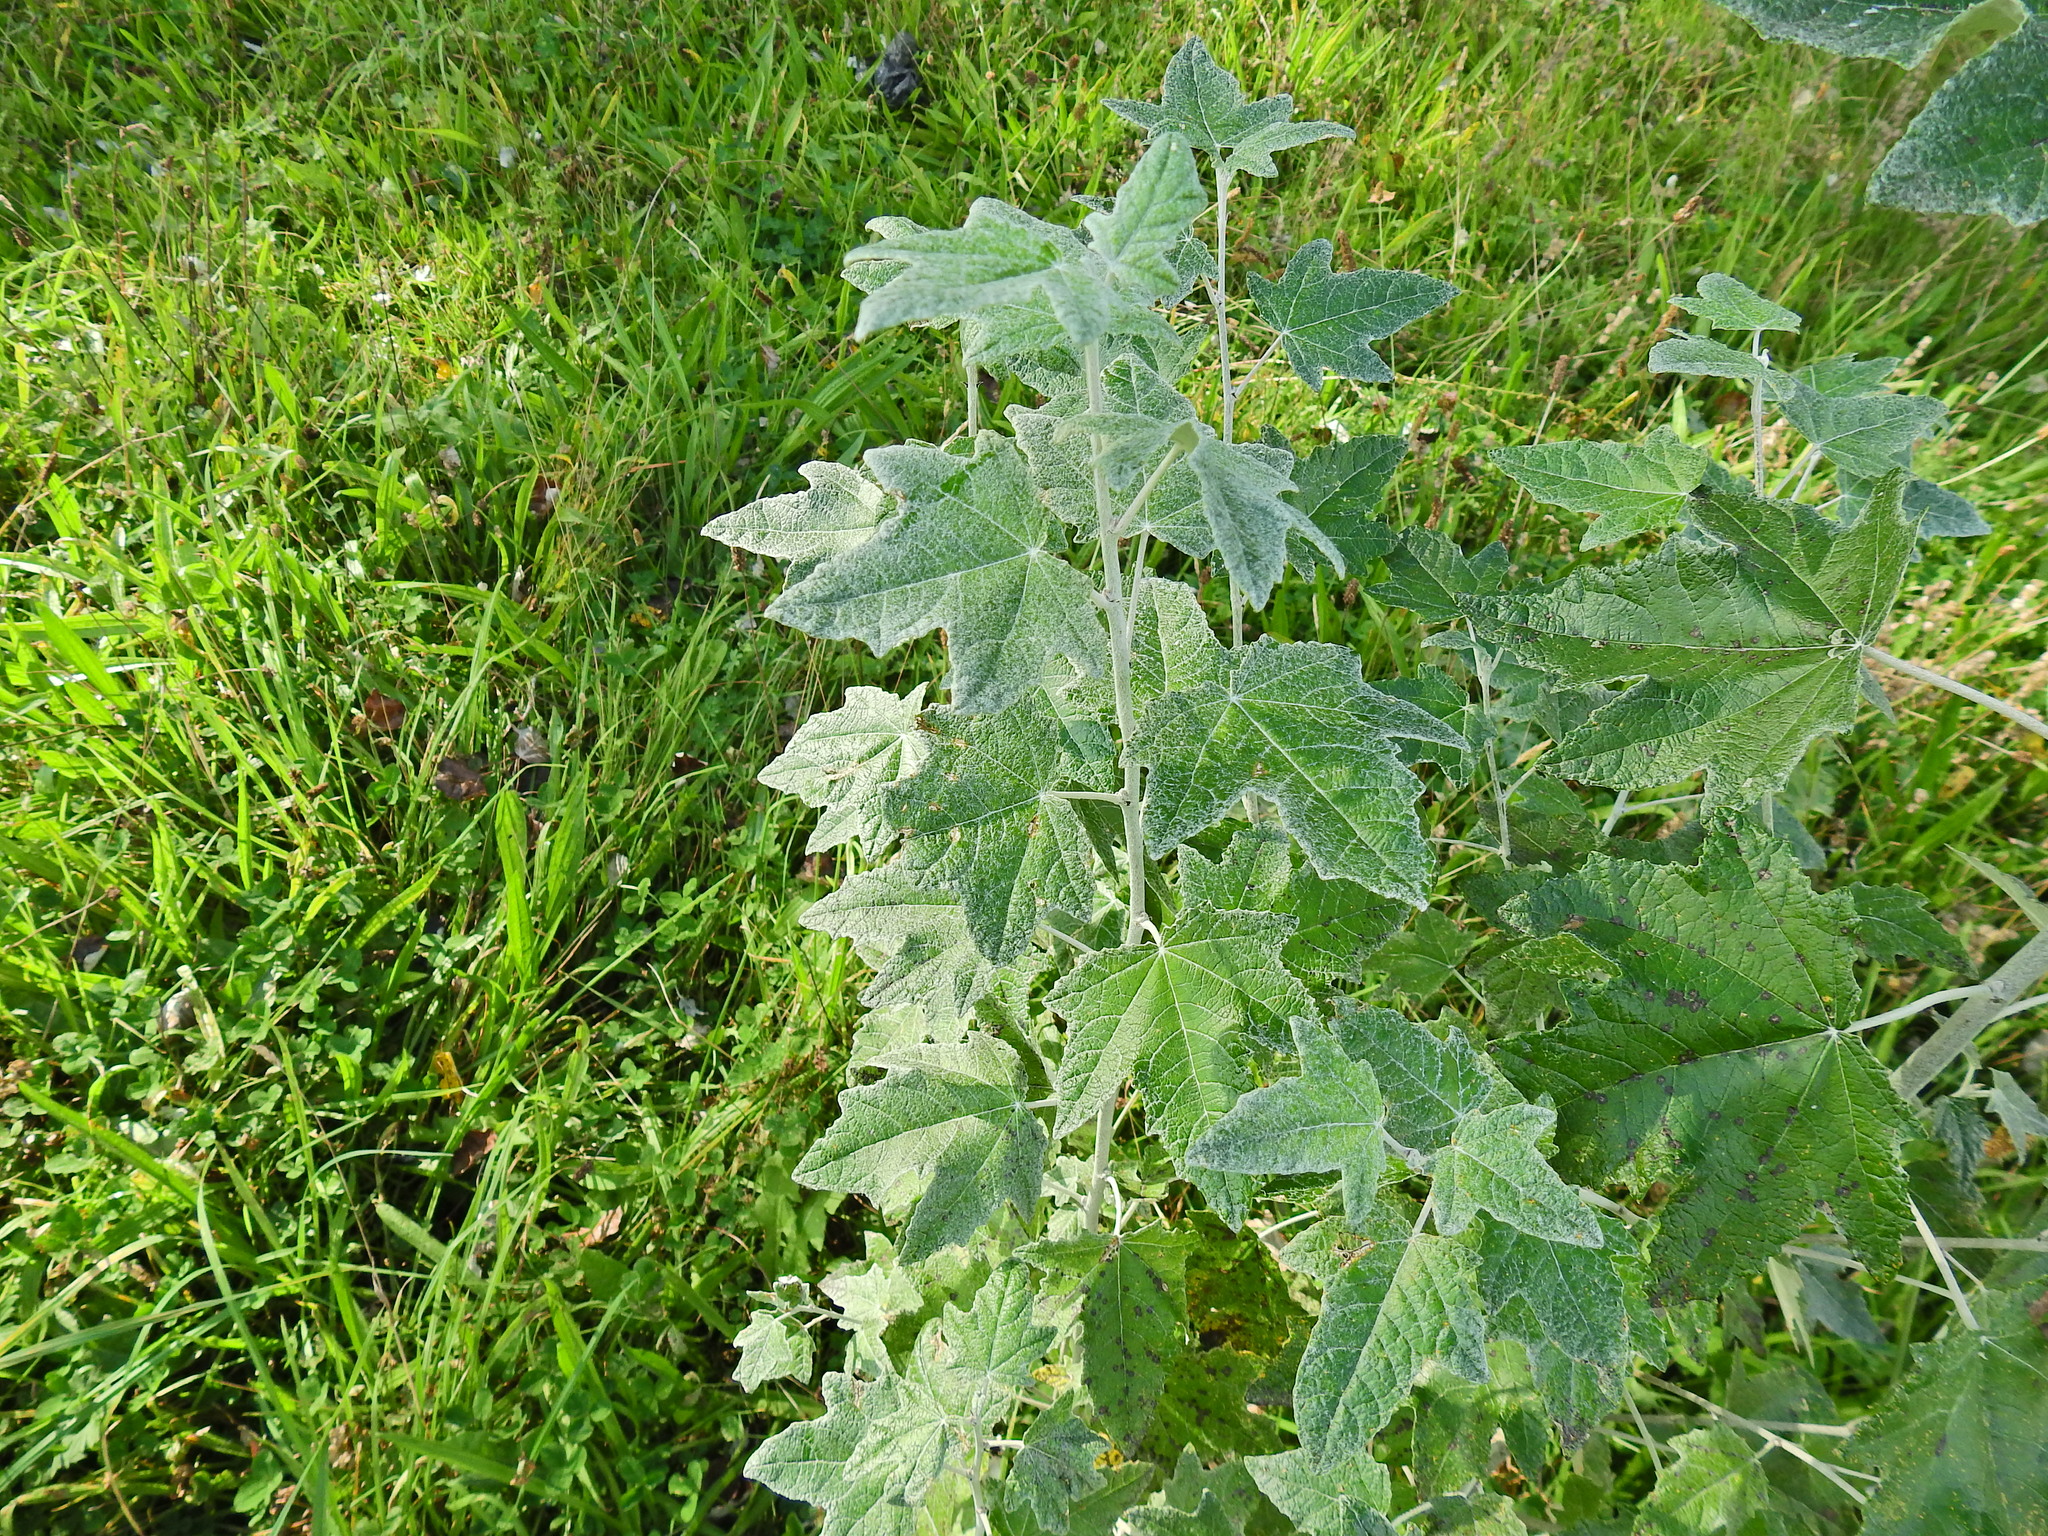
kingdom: Plantae
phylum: Tracheophyta
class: Magnoliopsida
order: Malpighiales
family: Salicaceae
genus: Populus
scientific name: Populus alba
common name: White poplar
